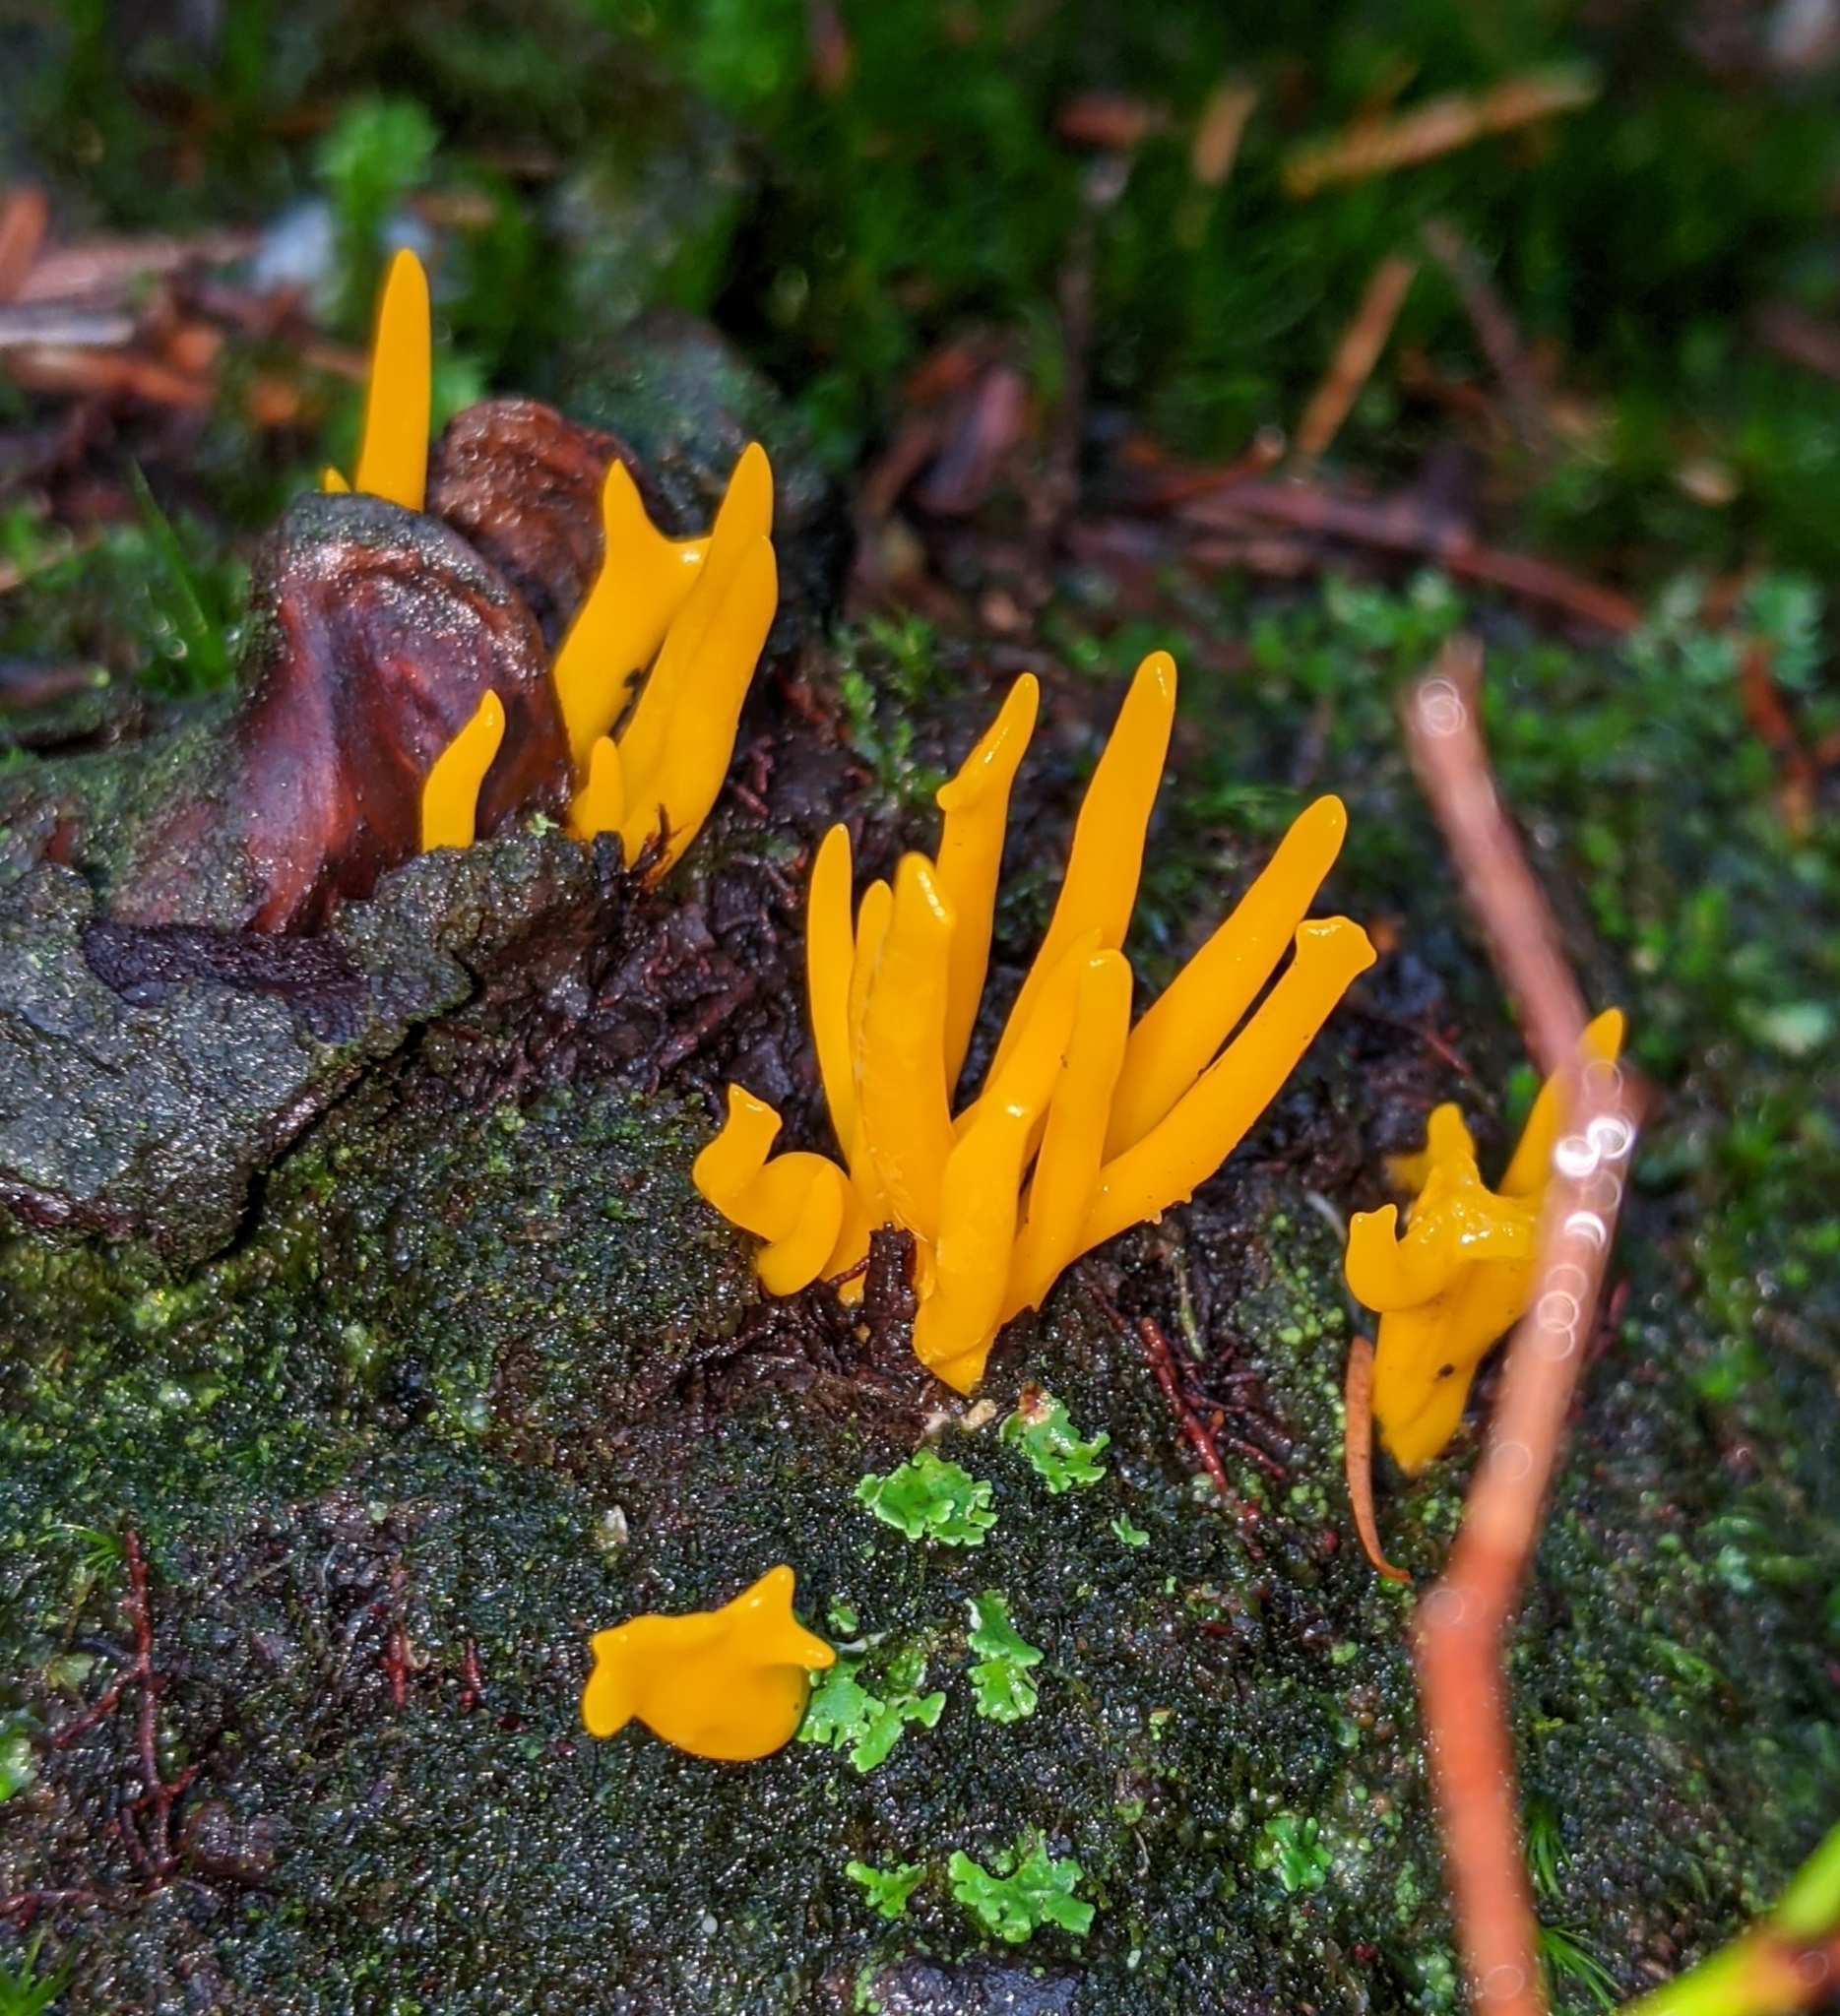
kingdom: Fungi
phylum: Basidiomycota
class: Dacrymycetes
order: Dacrymycetales
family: Dacrymycetaceae
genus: Calocera
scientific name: Calocera viscosa
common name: Yellow stagshorn
